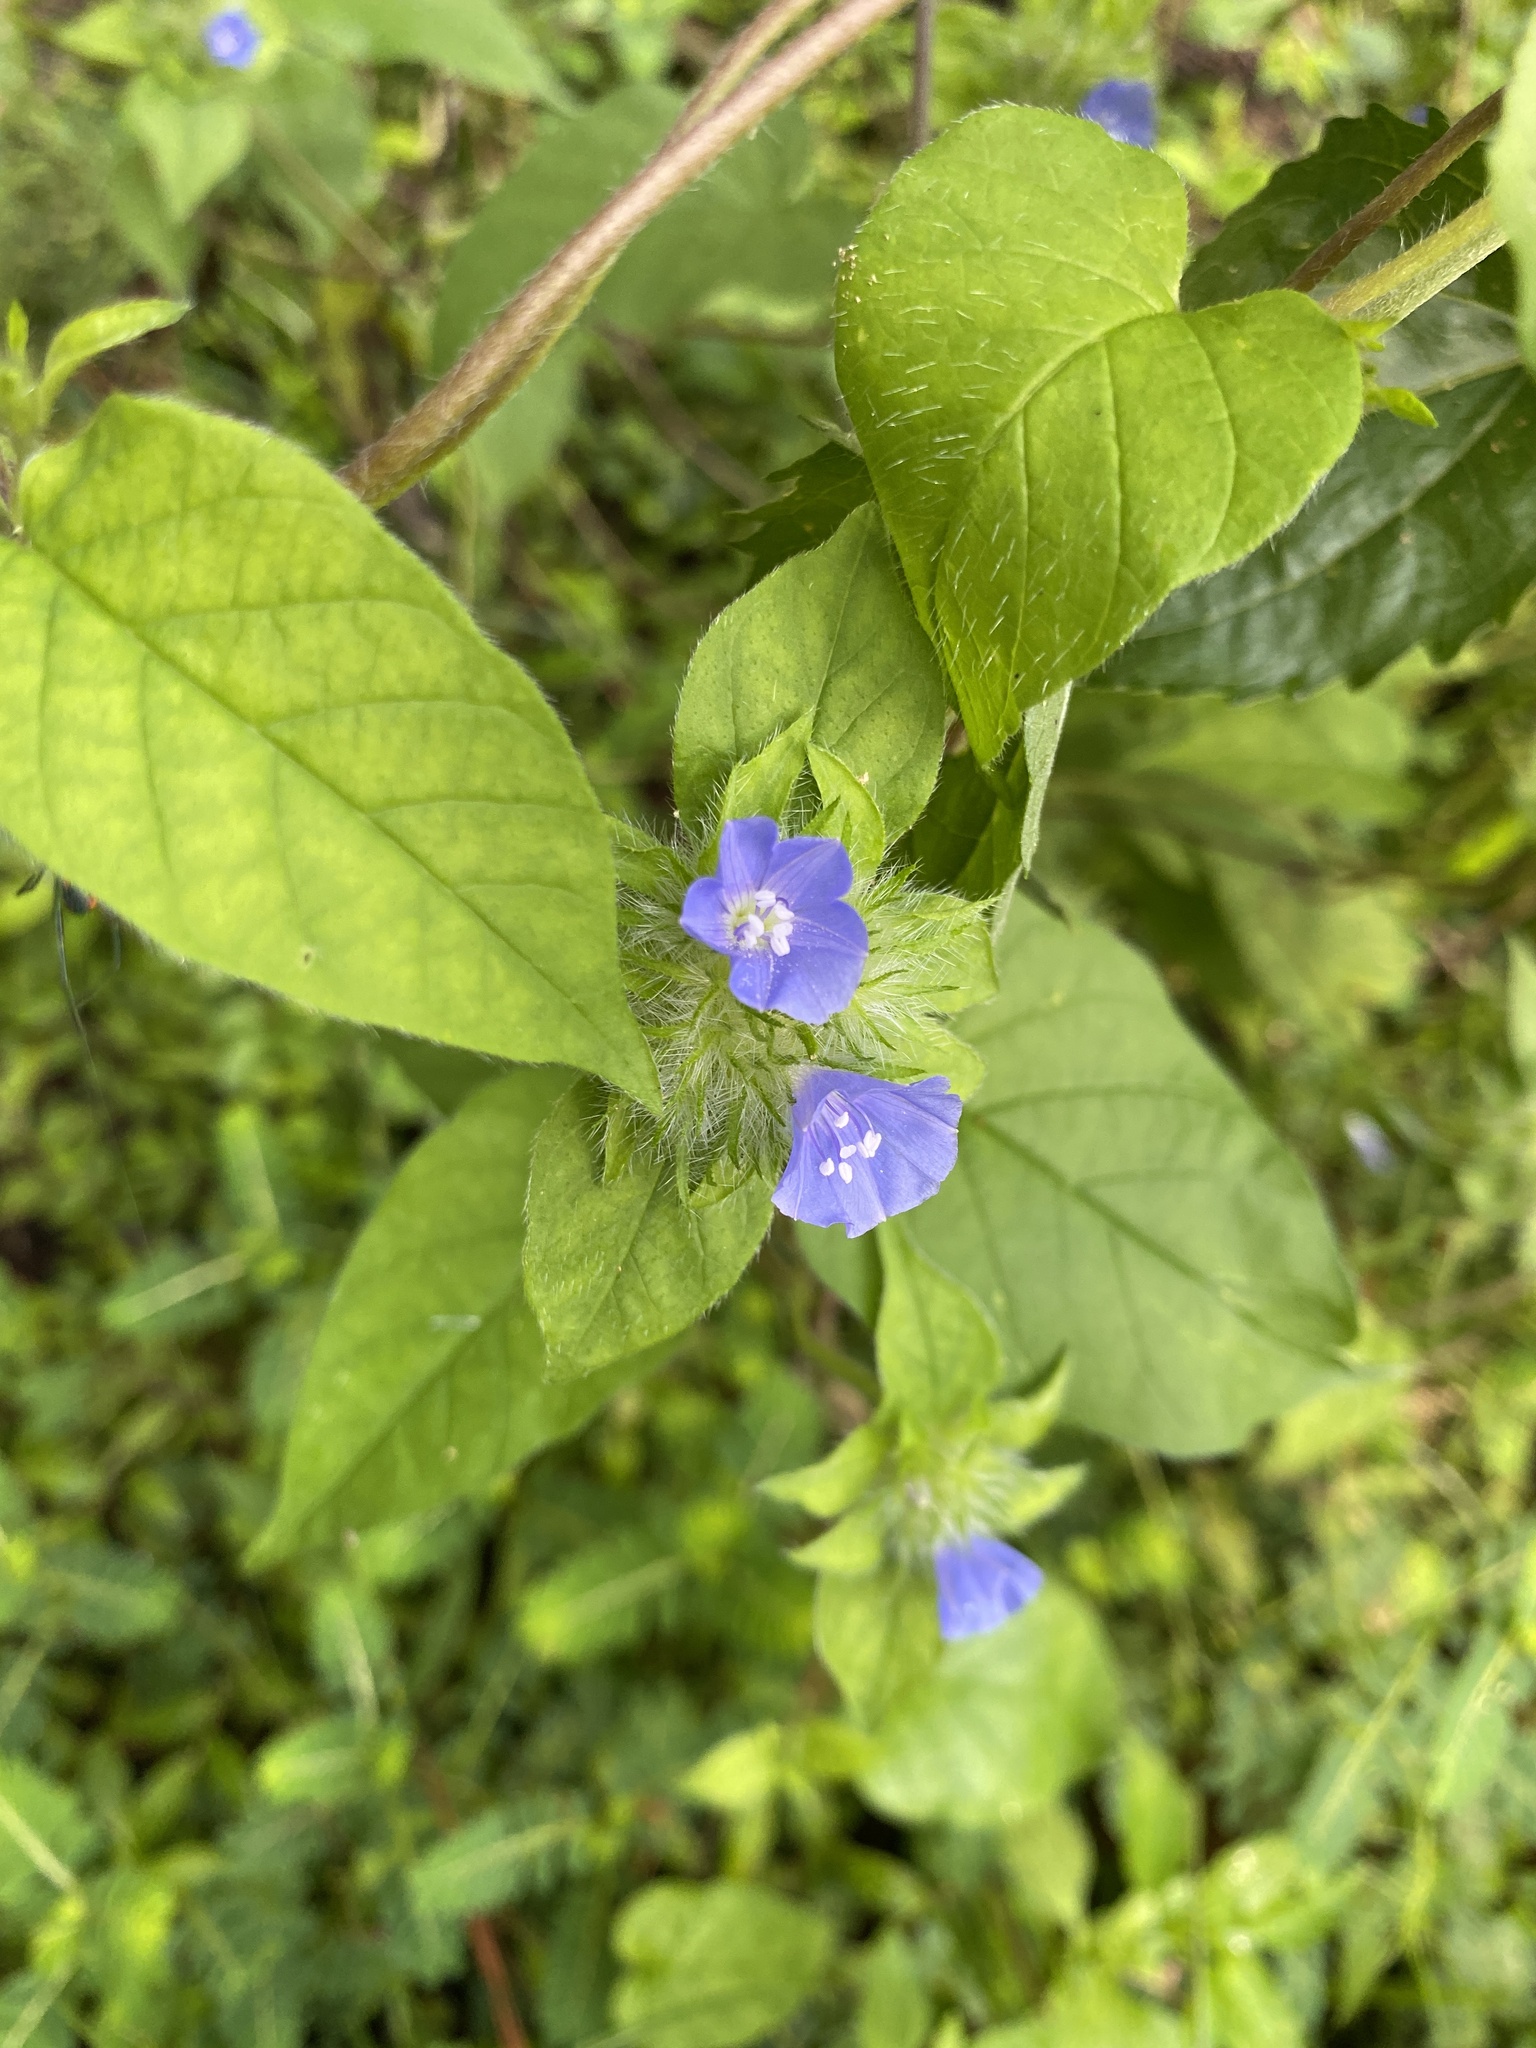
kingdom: Plantae
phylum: Tracheophyta
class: Magnoliopsida
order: Solanales
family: Convolvulaceae
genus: Jacquemontia
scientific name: Jacquemontia tamnifolia
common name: Hairy clustervine
